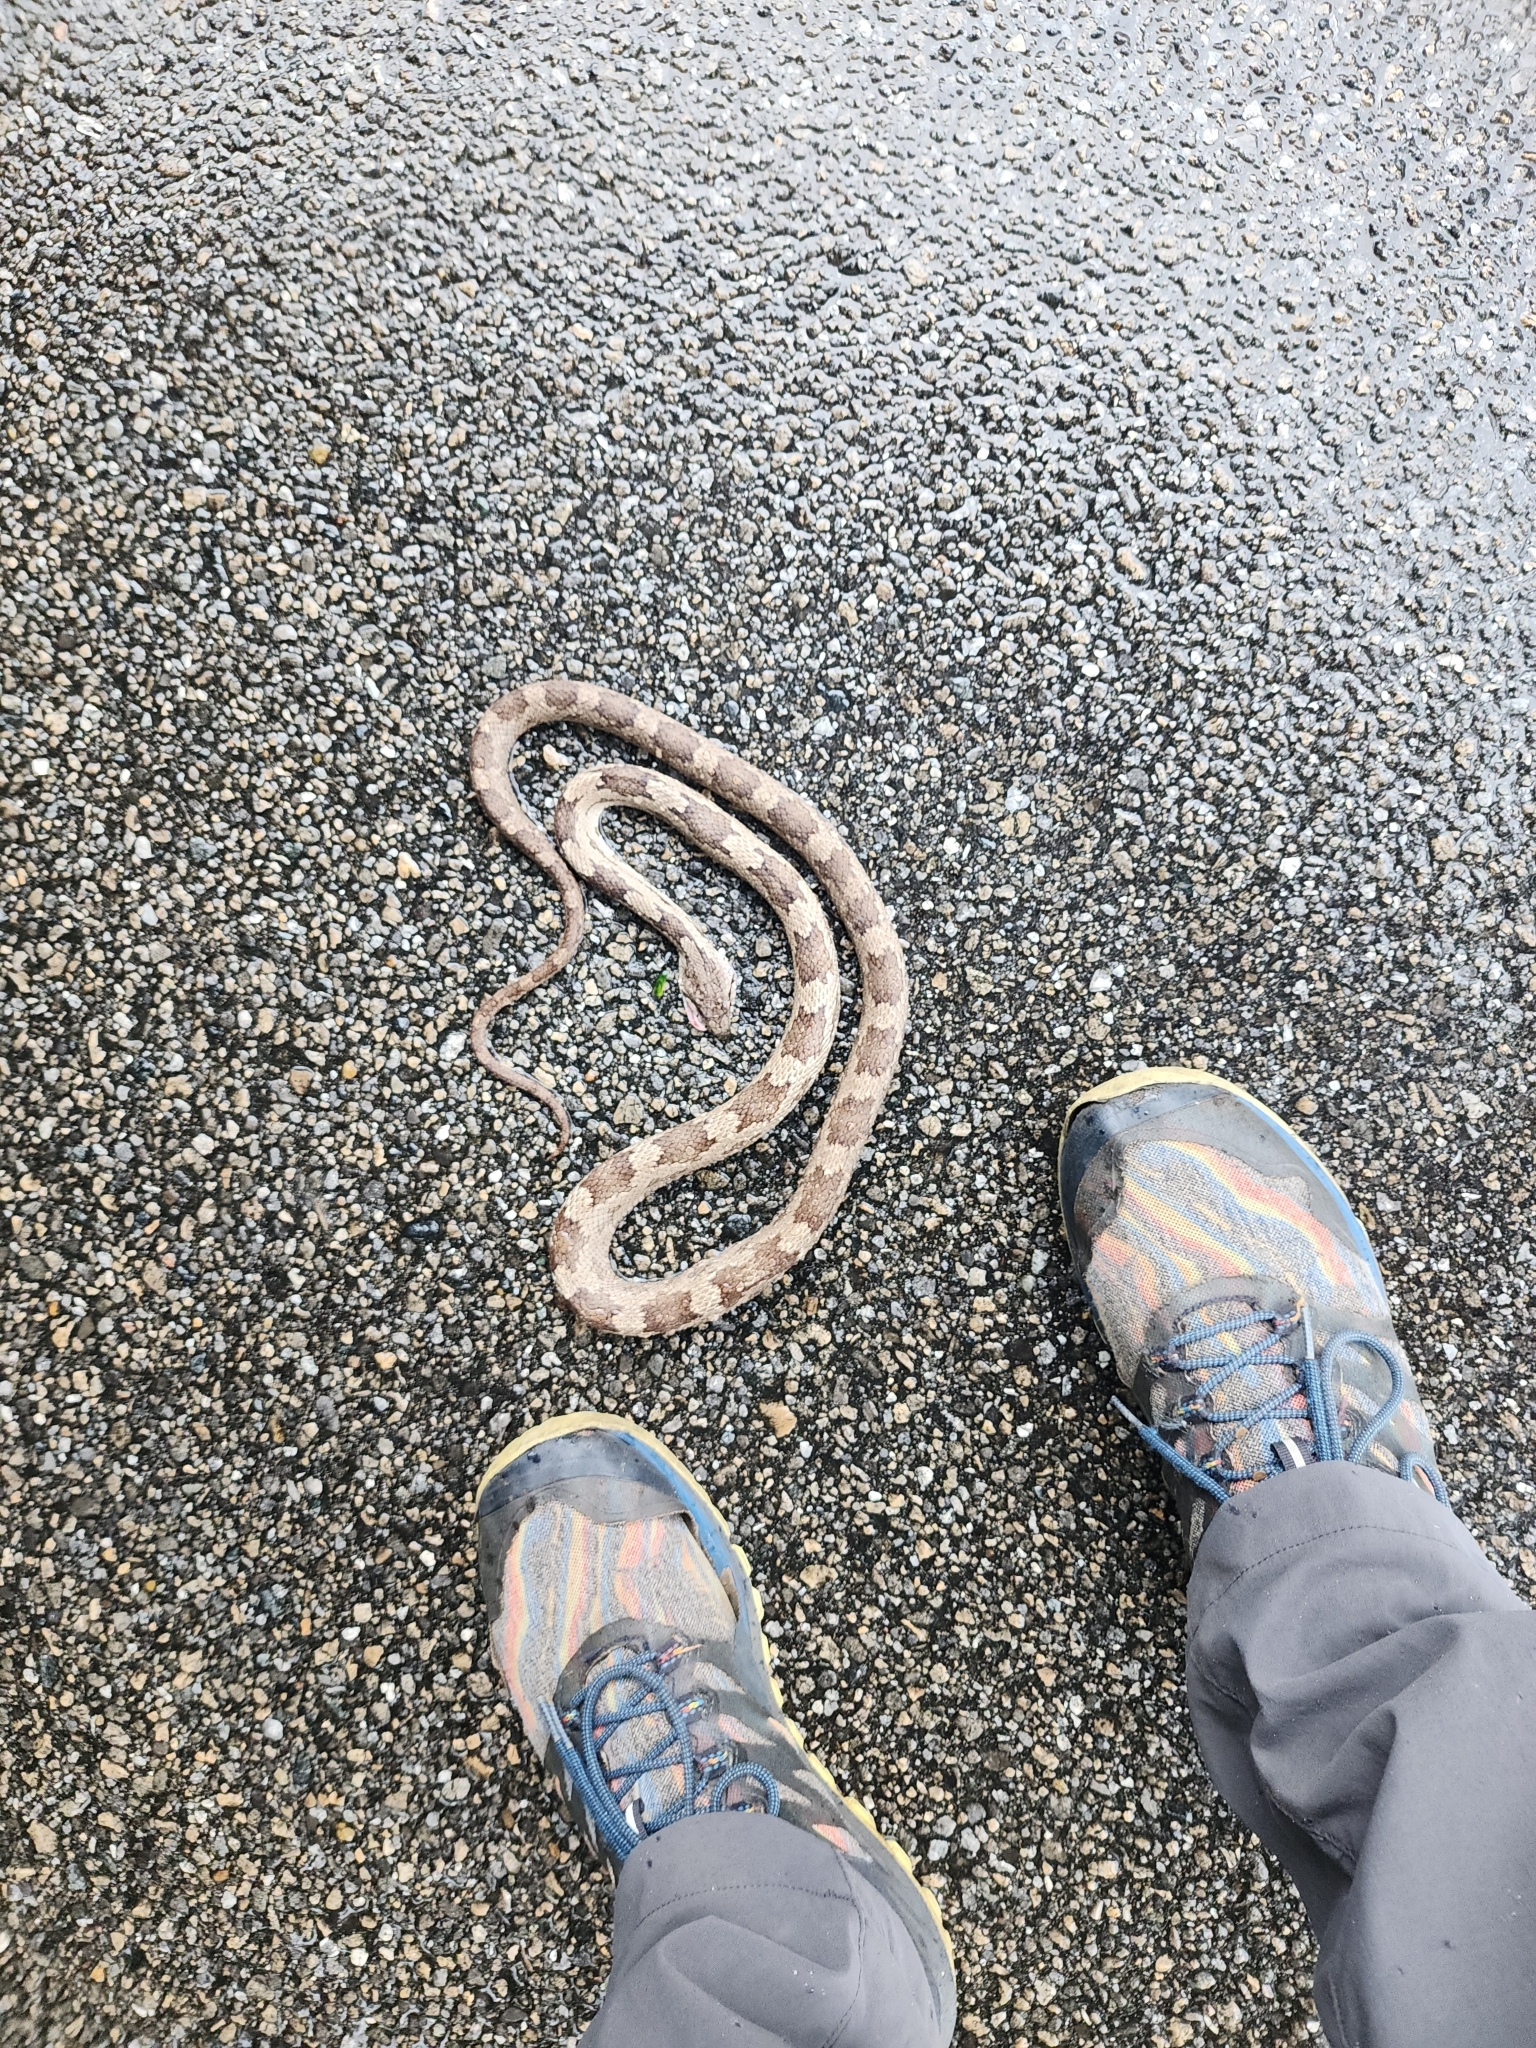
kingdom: Animalia
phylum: Chordata
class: Squamata
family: Colubridae
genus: Pantherophis
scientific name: Pantherophis
